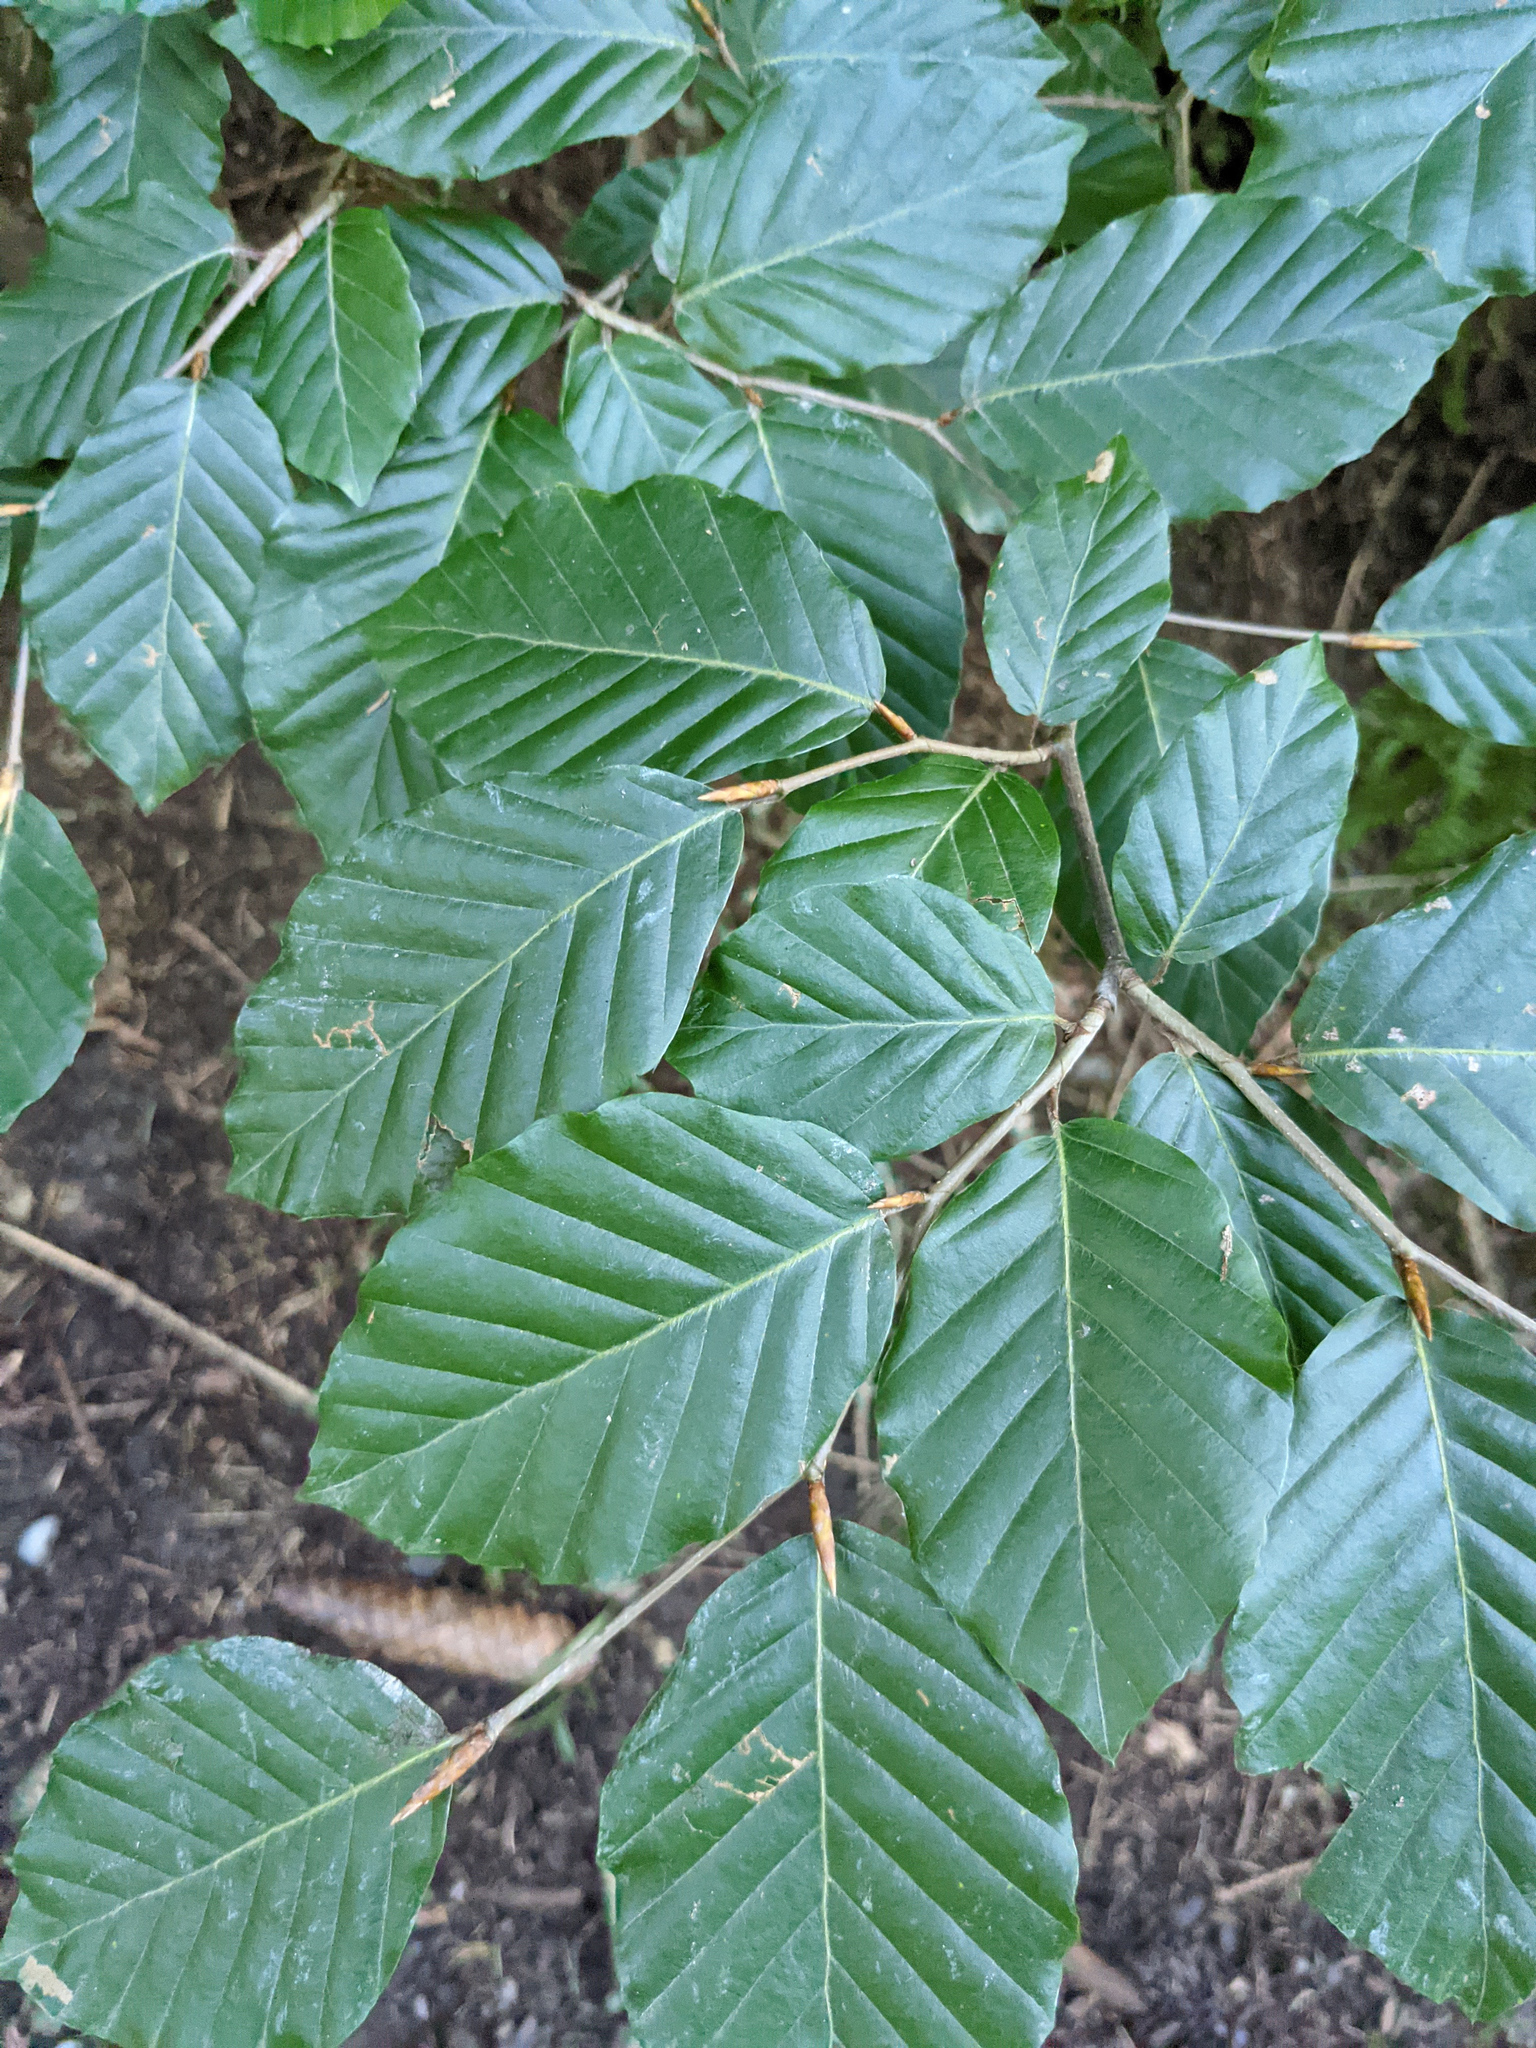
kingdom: Plantae
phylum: Tracheophyta
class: Magnoliopsida
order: Fagales
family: Fagaceae
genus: Fagus
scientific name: Fagus sylvatica
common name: Beech
